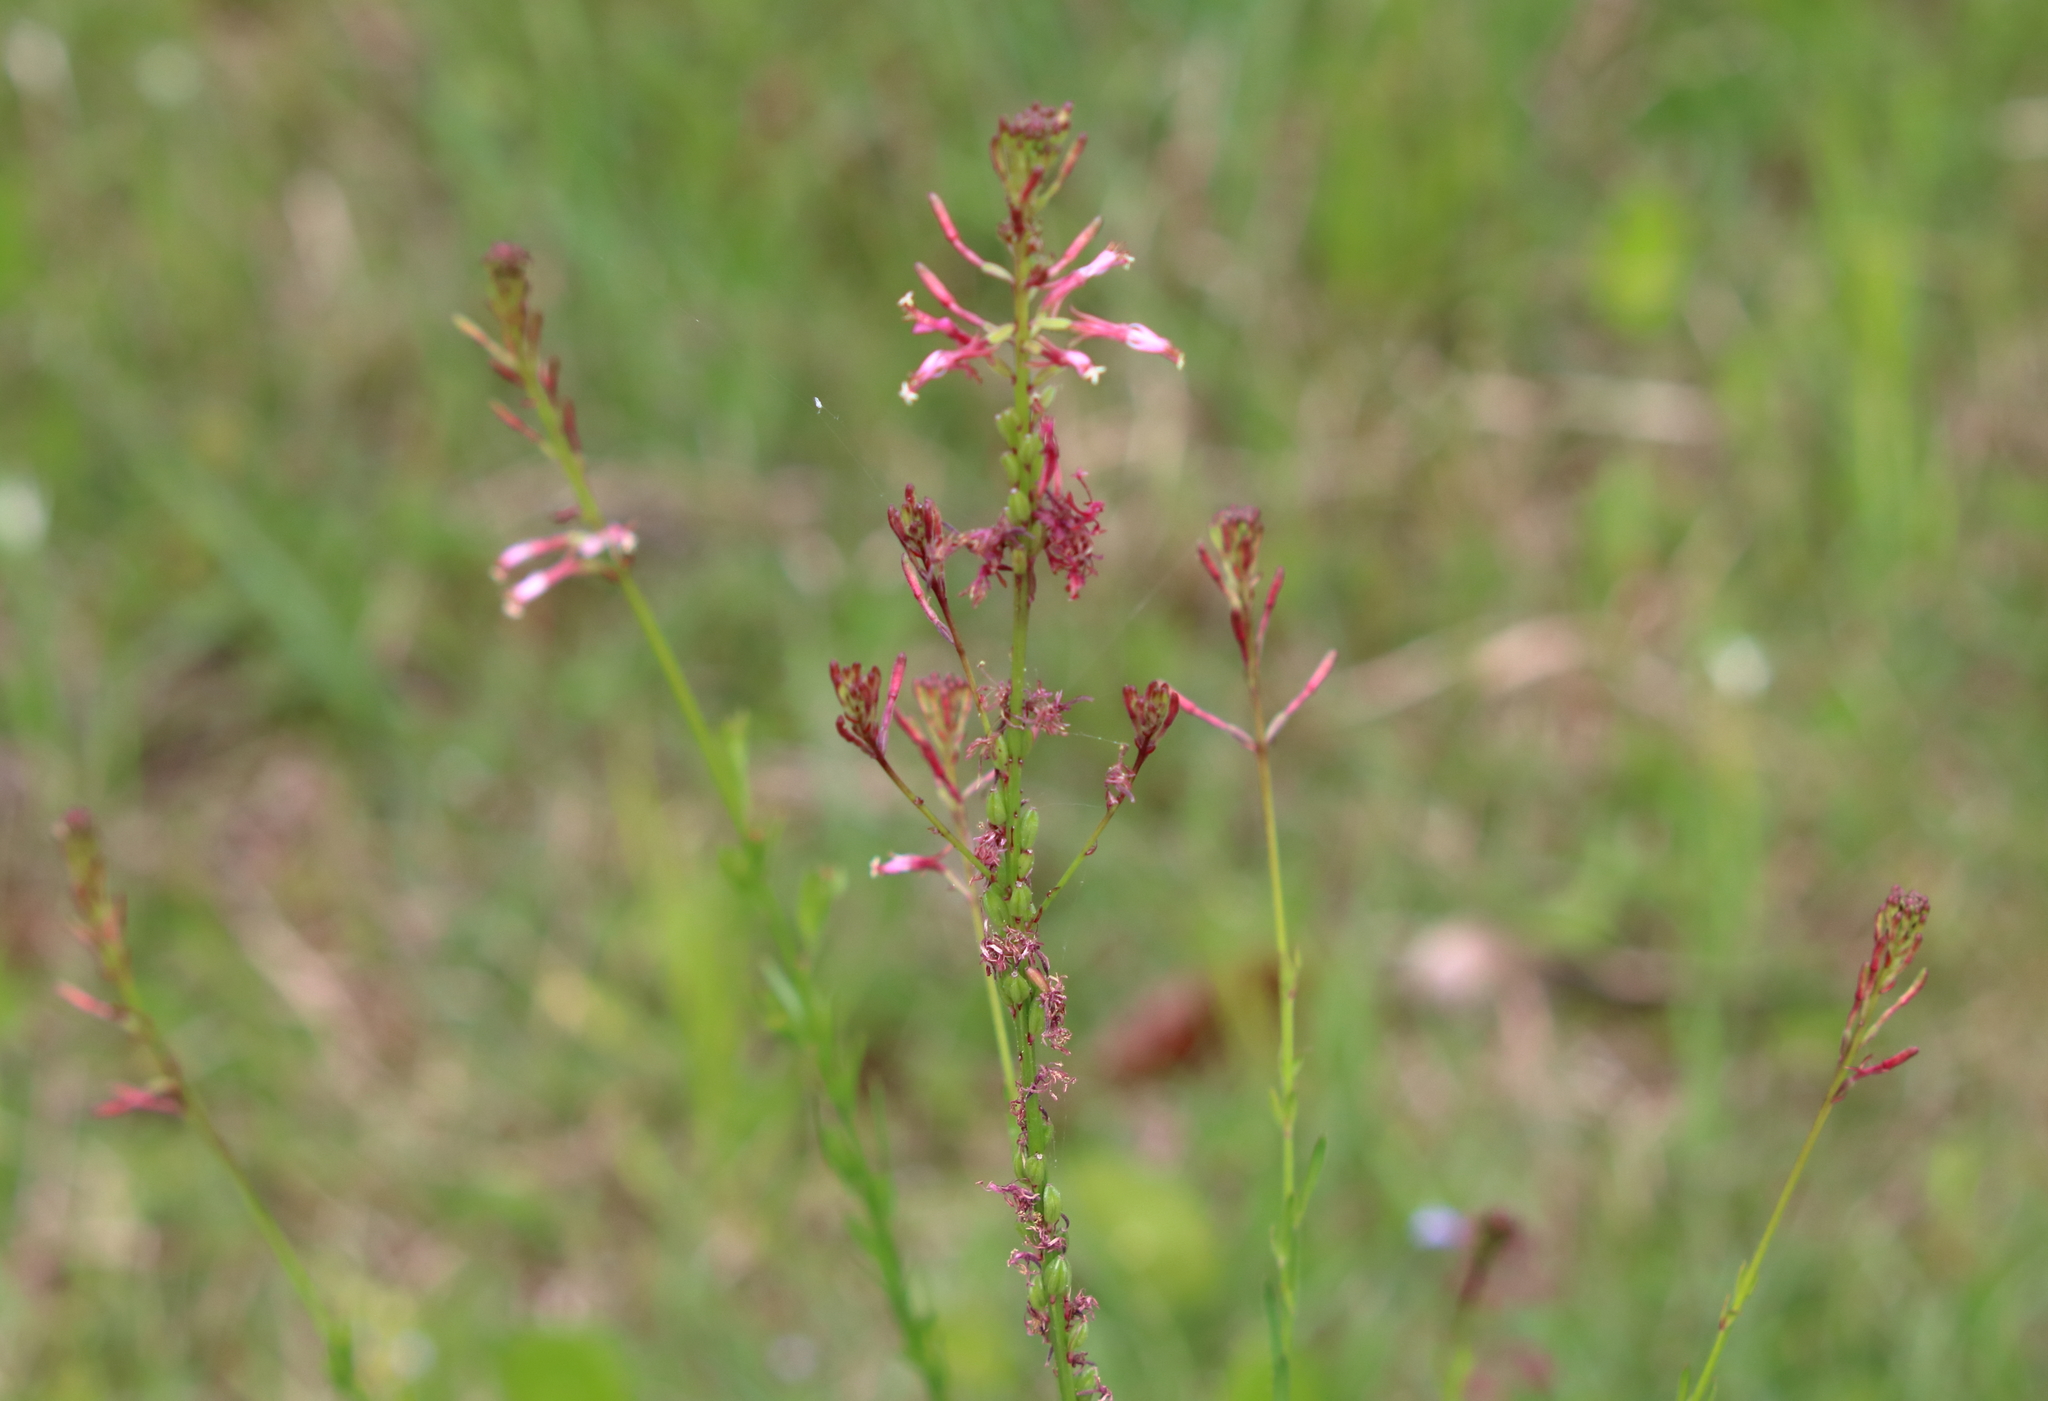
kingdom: Plantae
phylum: Tracheophyta
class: Magnoliopsida
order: Myrtales
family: Onagraceae
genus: Oenothera
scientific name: Oenothera simulans
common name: Southern beeblossom
